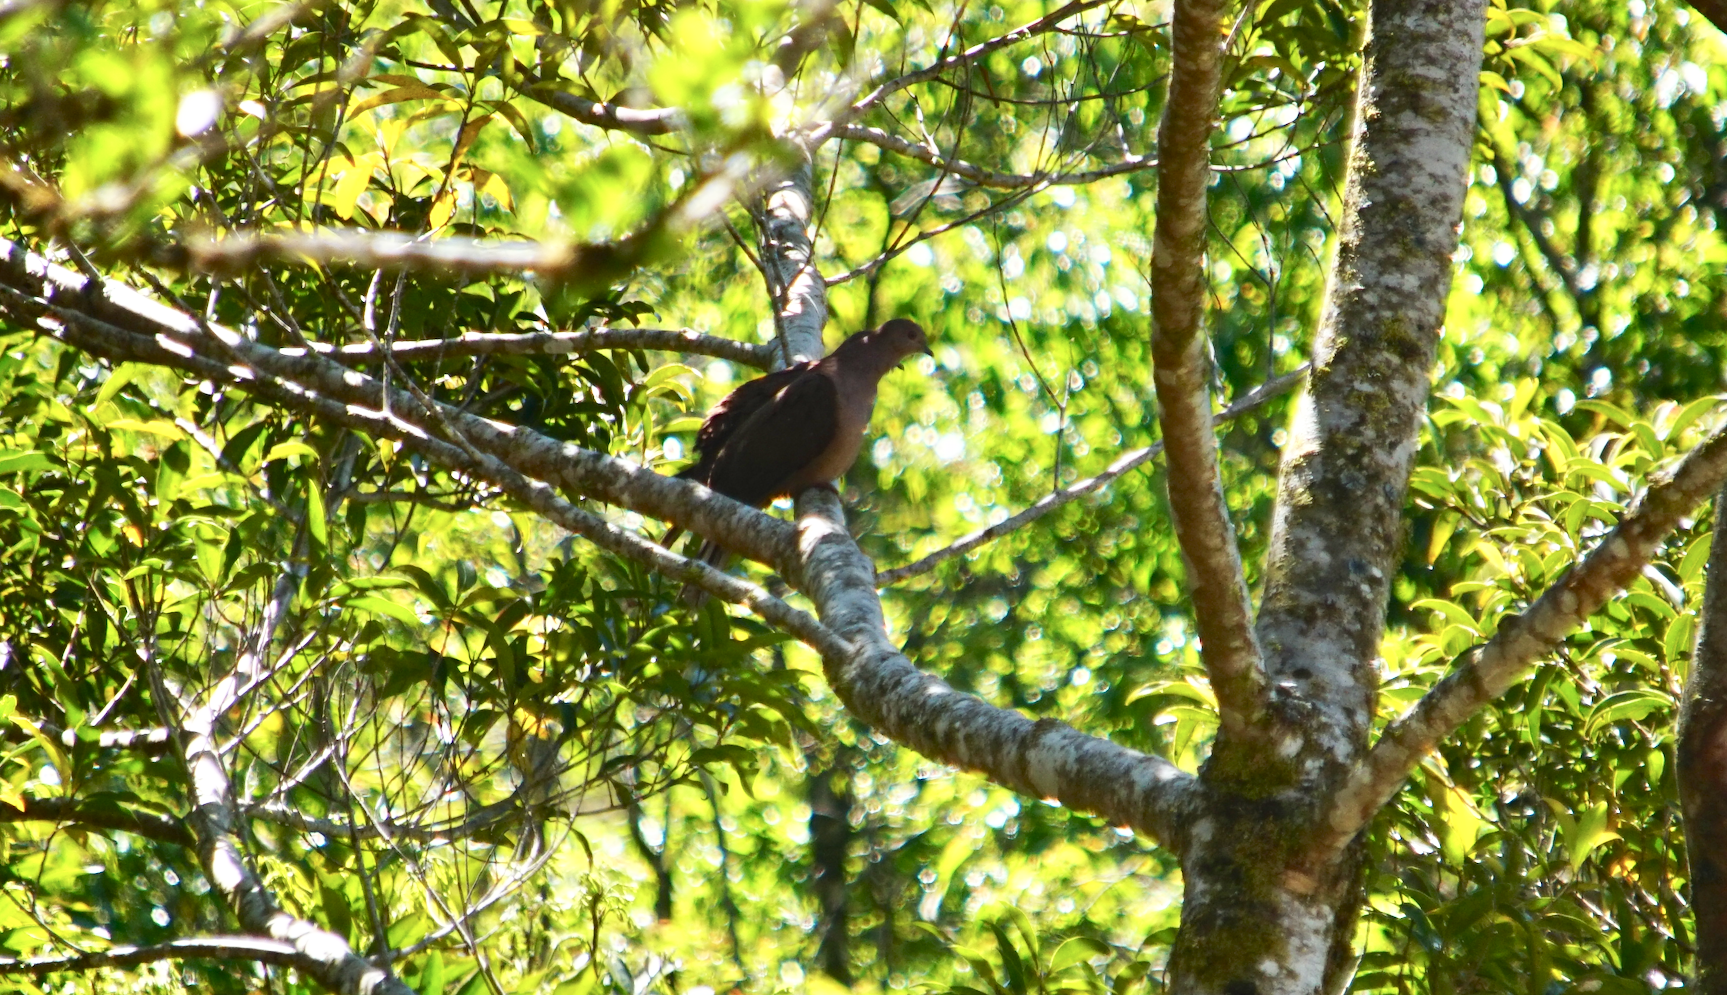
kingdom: Animalia
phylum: Chordata
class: Aves
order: Columbiformes
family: Columbidae
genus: Columbina
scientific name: Columbina talpacoti
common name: Ruddy ground dove
